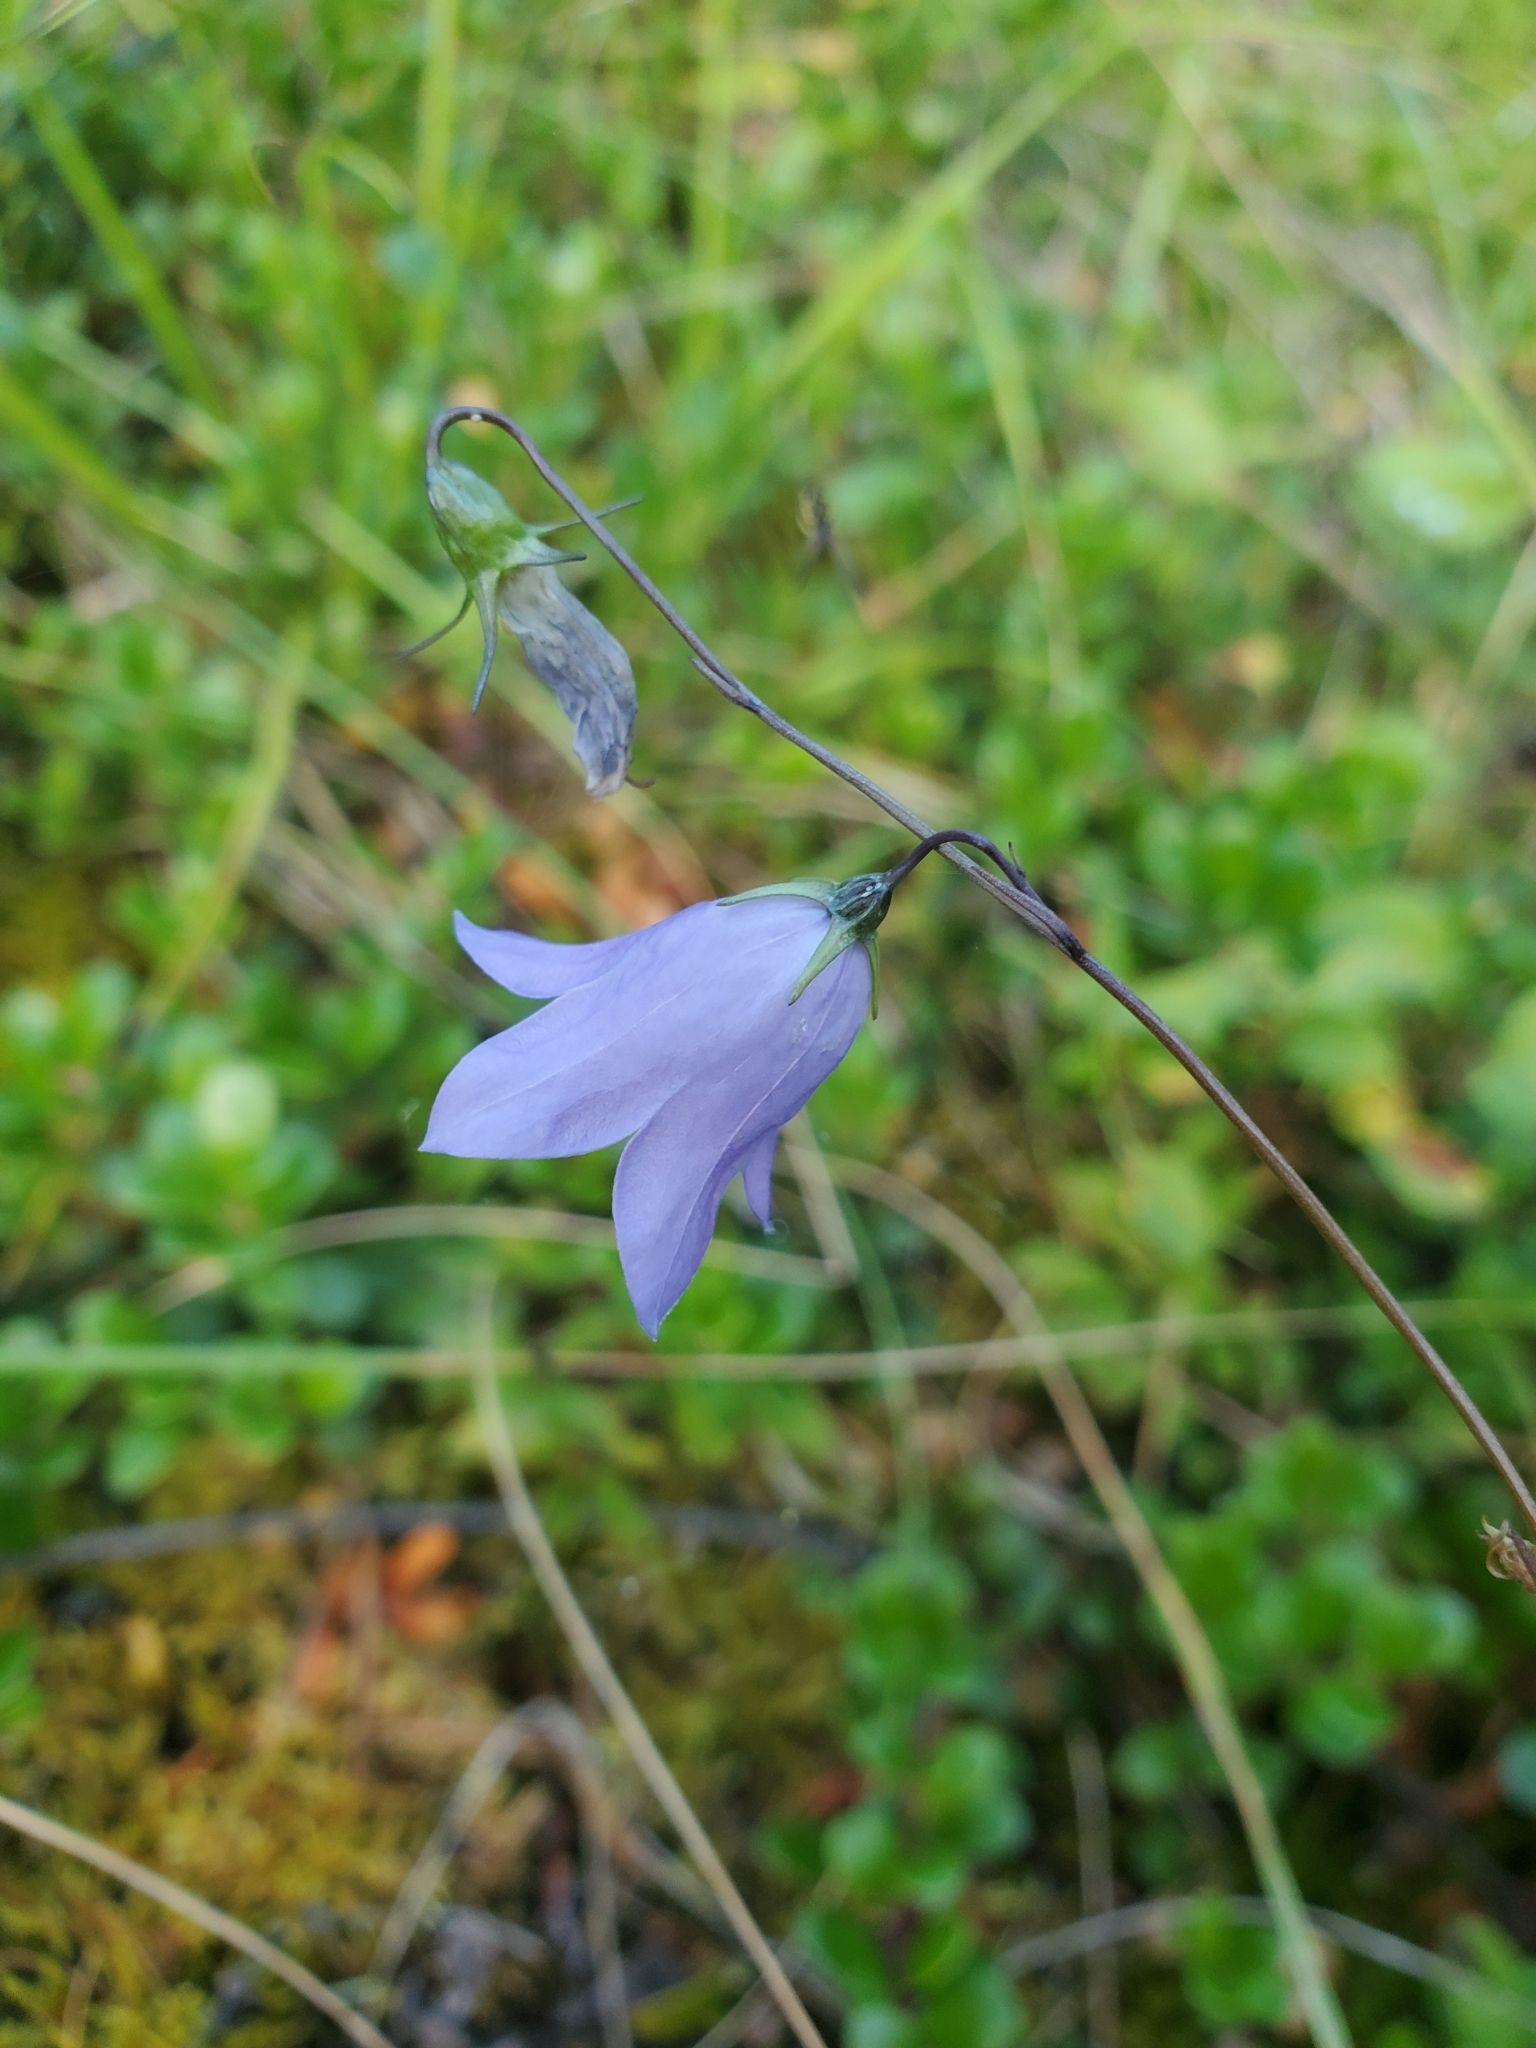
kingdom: Plantae
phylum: Tracheophyta
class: Magnoliopsida
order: Asterales
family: Campanulaceae
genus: Campanula
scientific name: Campanula alaskana
